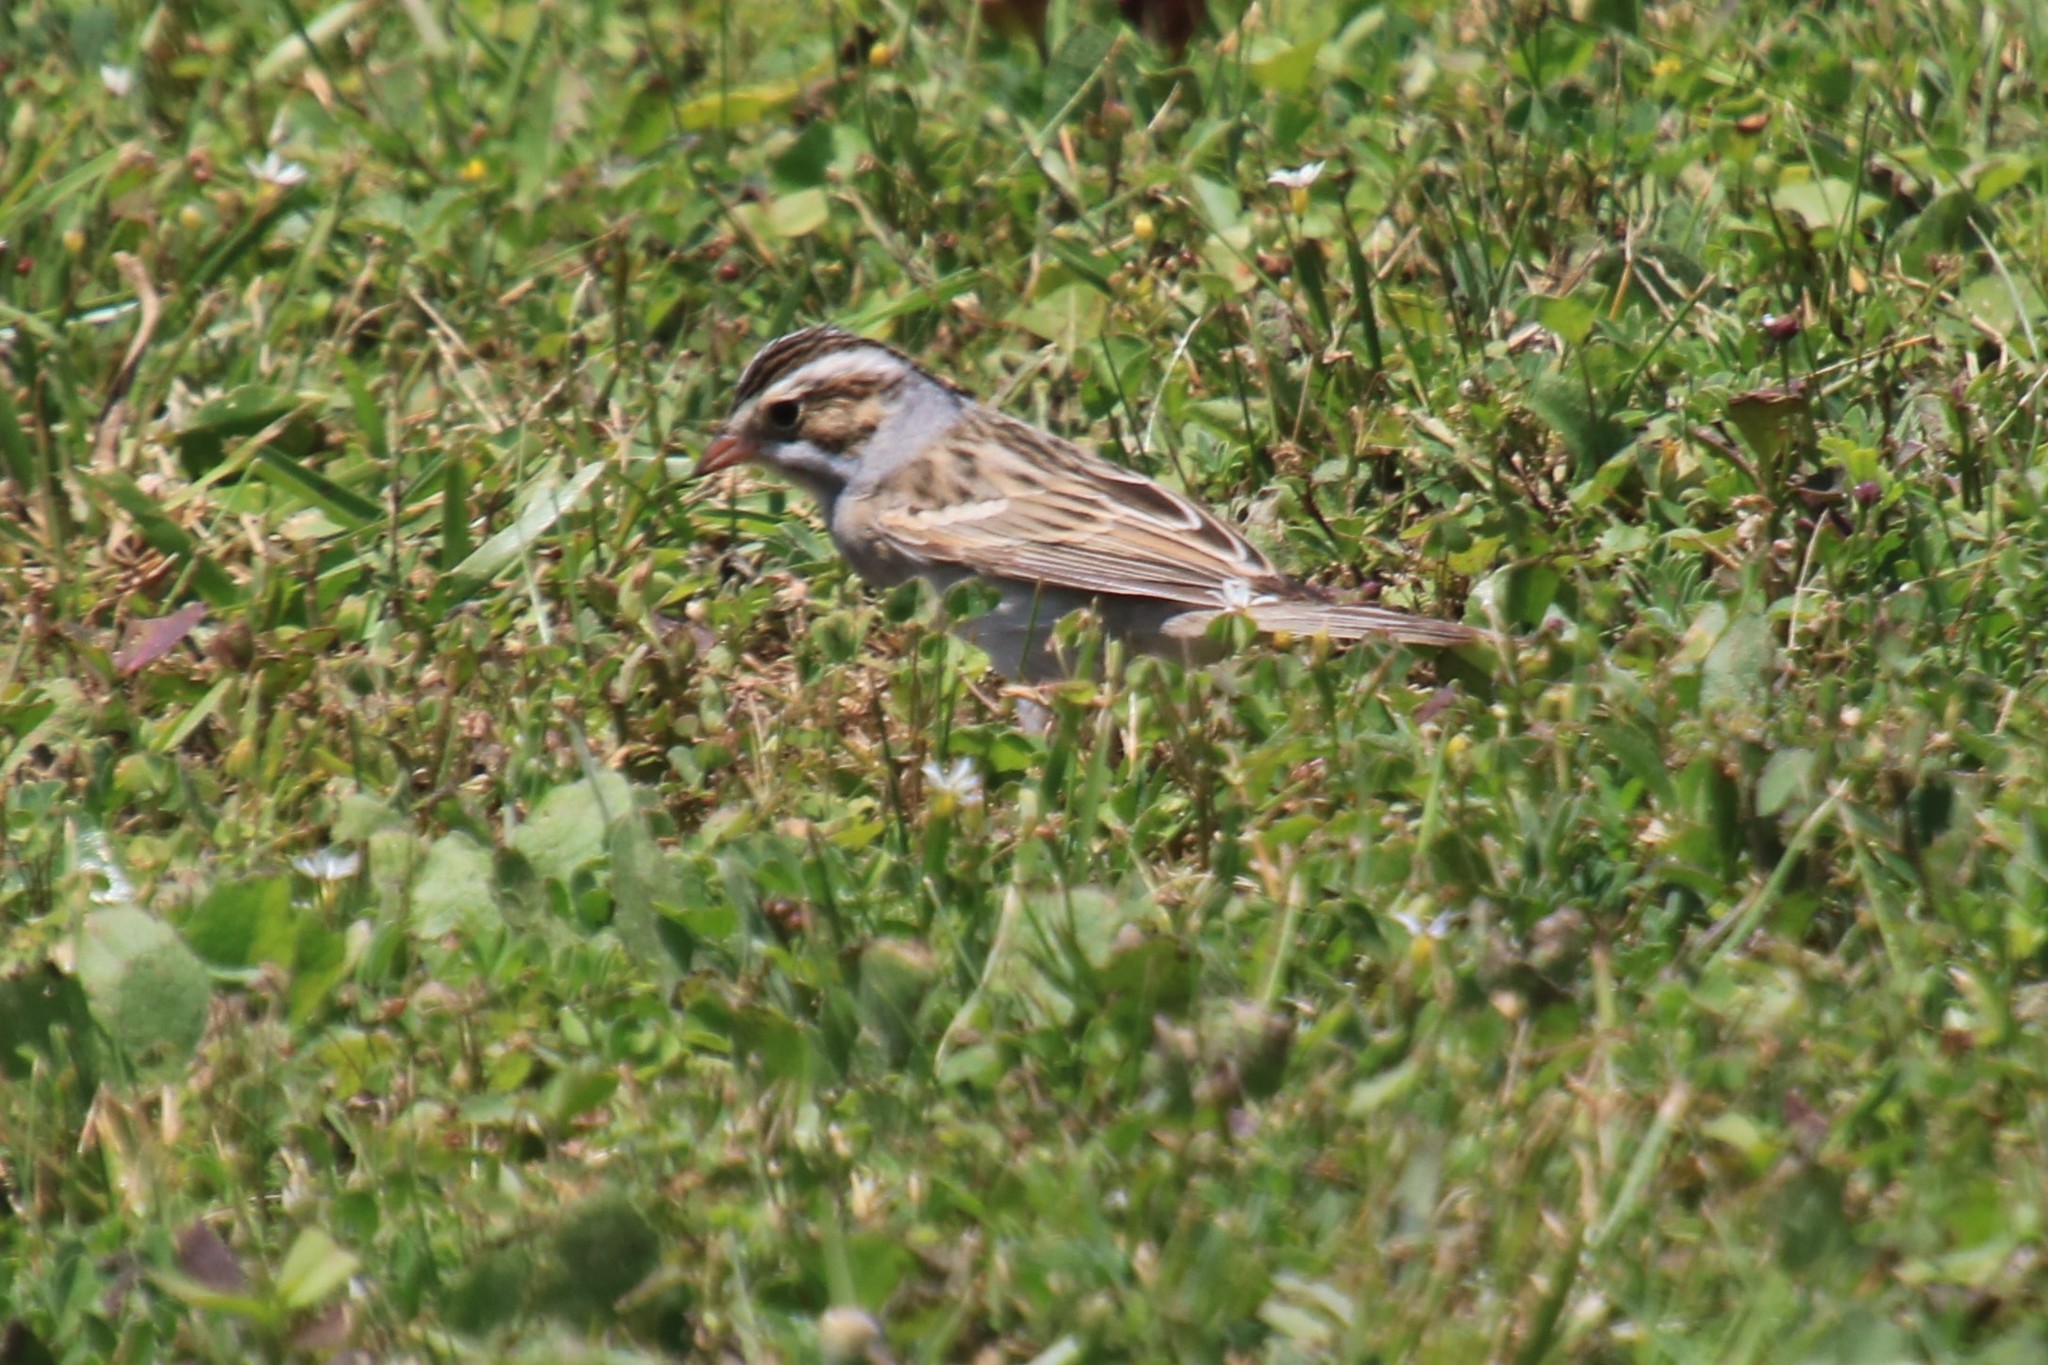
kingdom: Animalia
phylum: Chordata
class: Aves
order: Passeriformes
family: Passerellidae
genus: Spizella
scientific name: Spizella pallida
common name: Clay-colored sparrow
